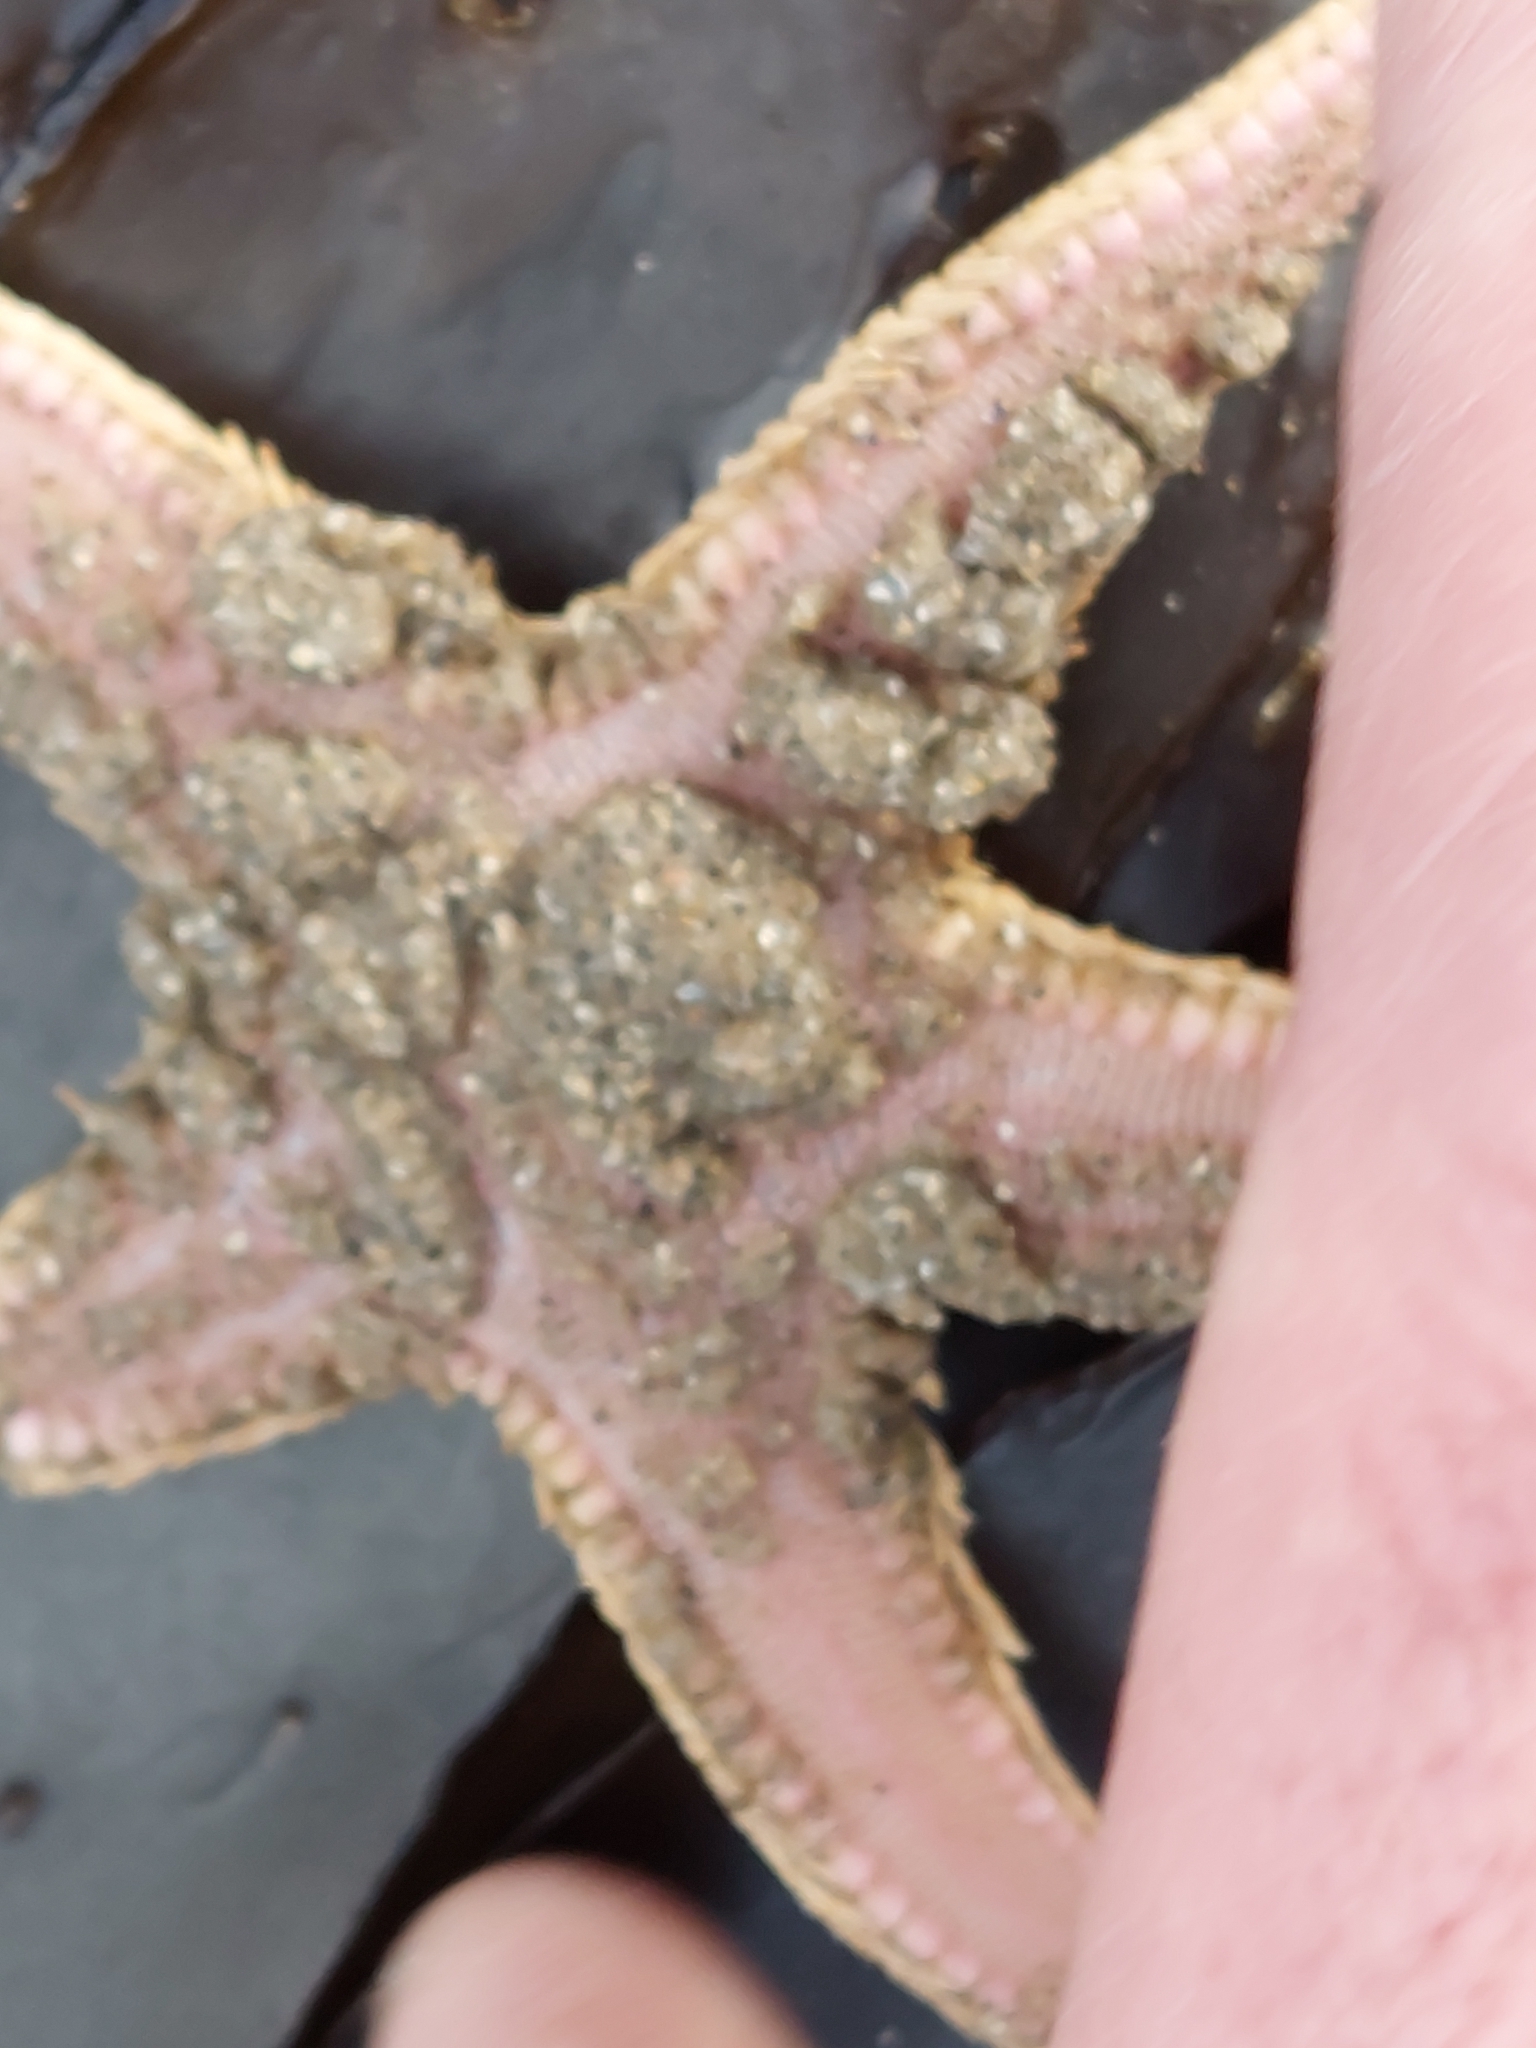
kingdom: Animalia
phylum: Echinodermata
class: Asteroidea
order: Paxillosida
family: Astropectinidae
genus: Astropecten
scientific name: Astropecten irregularis
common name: Sand star
